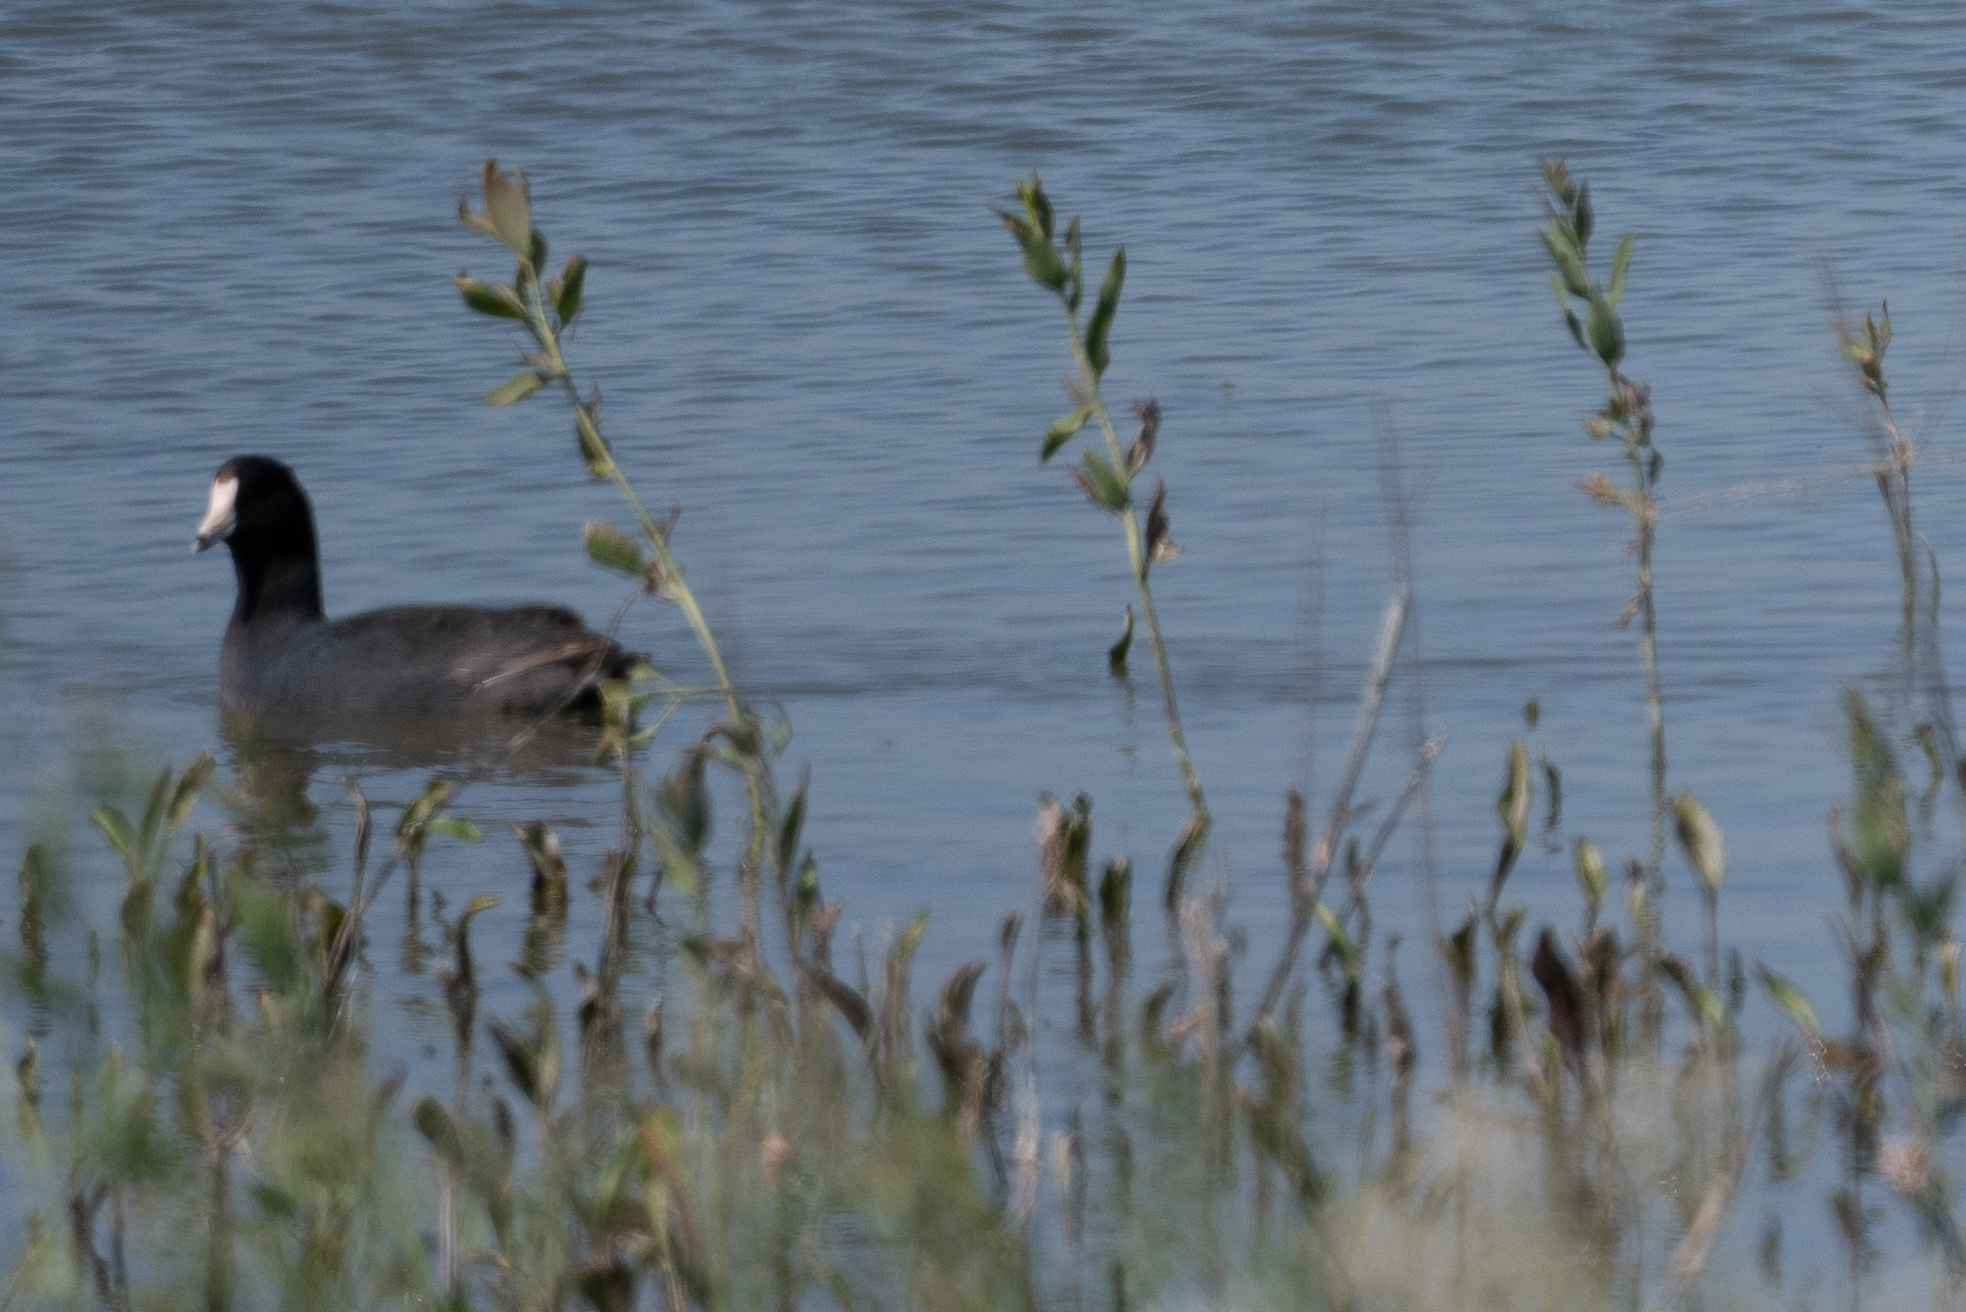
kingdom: Animalia
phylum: Chordata
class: Aves
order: Gruiformes
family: Rallidae
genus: Fulica
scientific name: Fulica americana
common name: American coot
